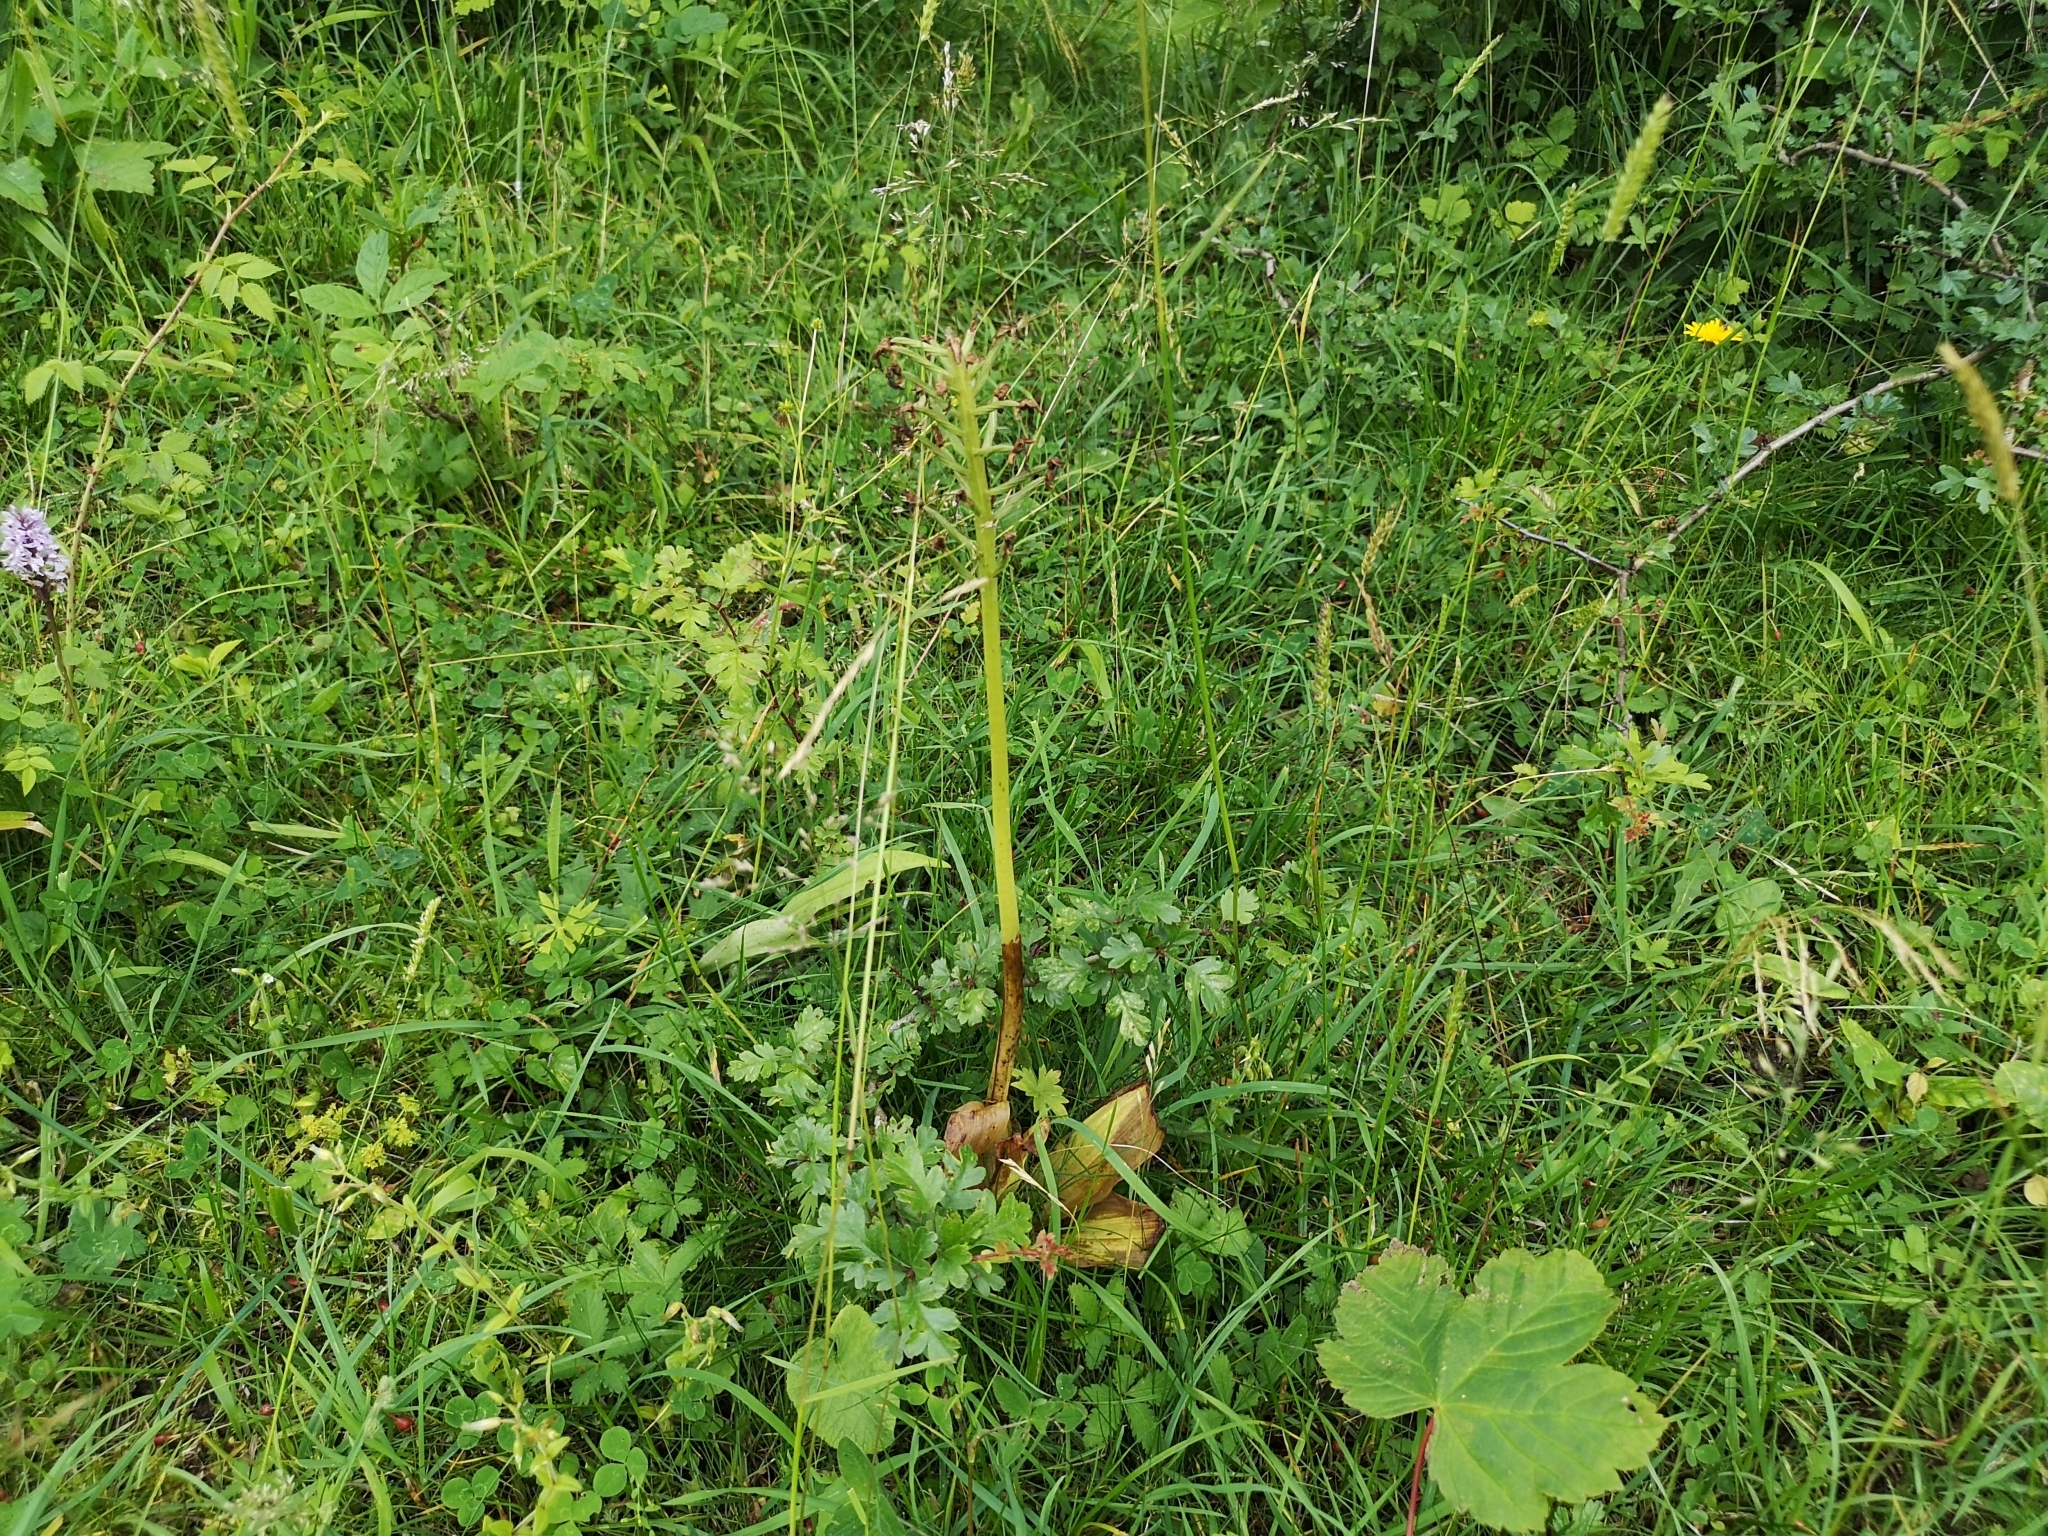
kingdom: Plantae
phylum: Tracheophyta
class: Liliopsida
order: Asparagales
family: Orchidaceae
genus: Orchis
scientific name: Orchis purpurea
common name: Lady orchid
